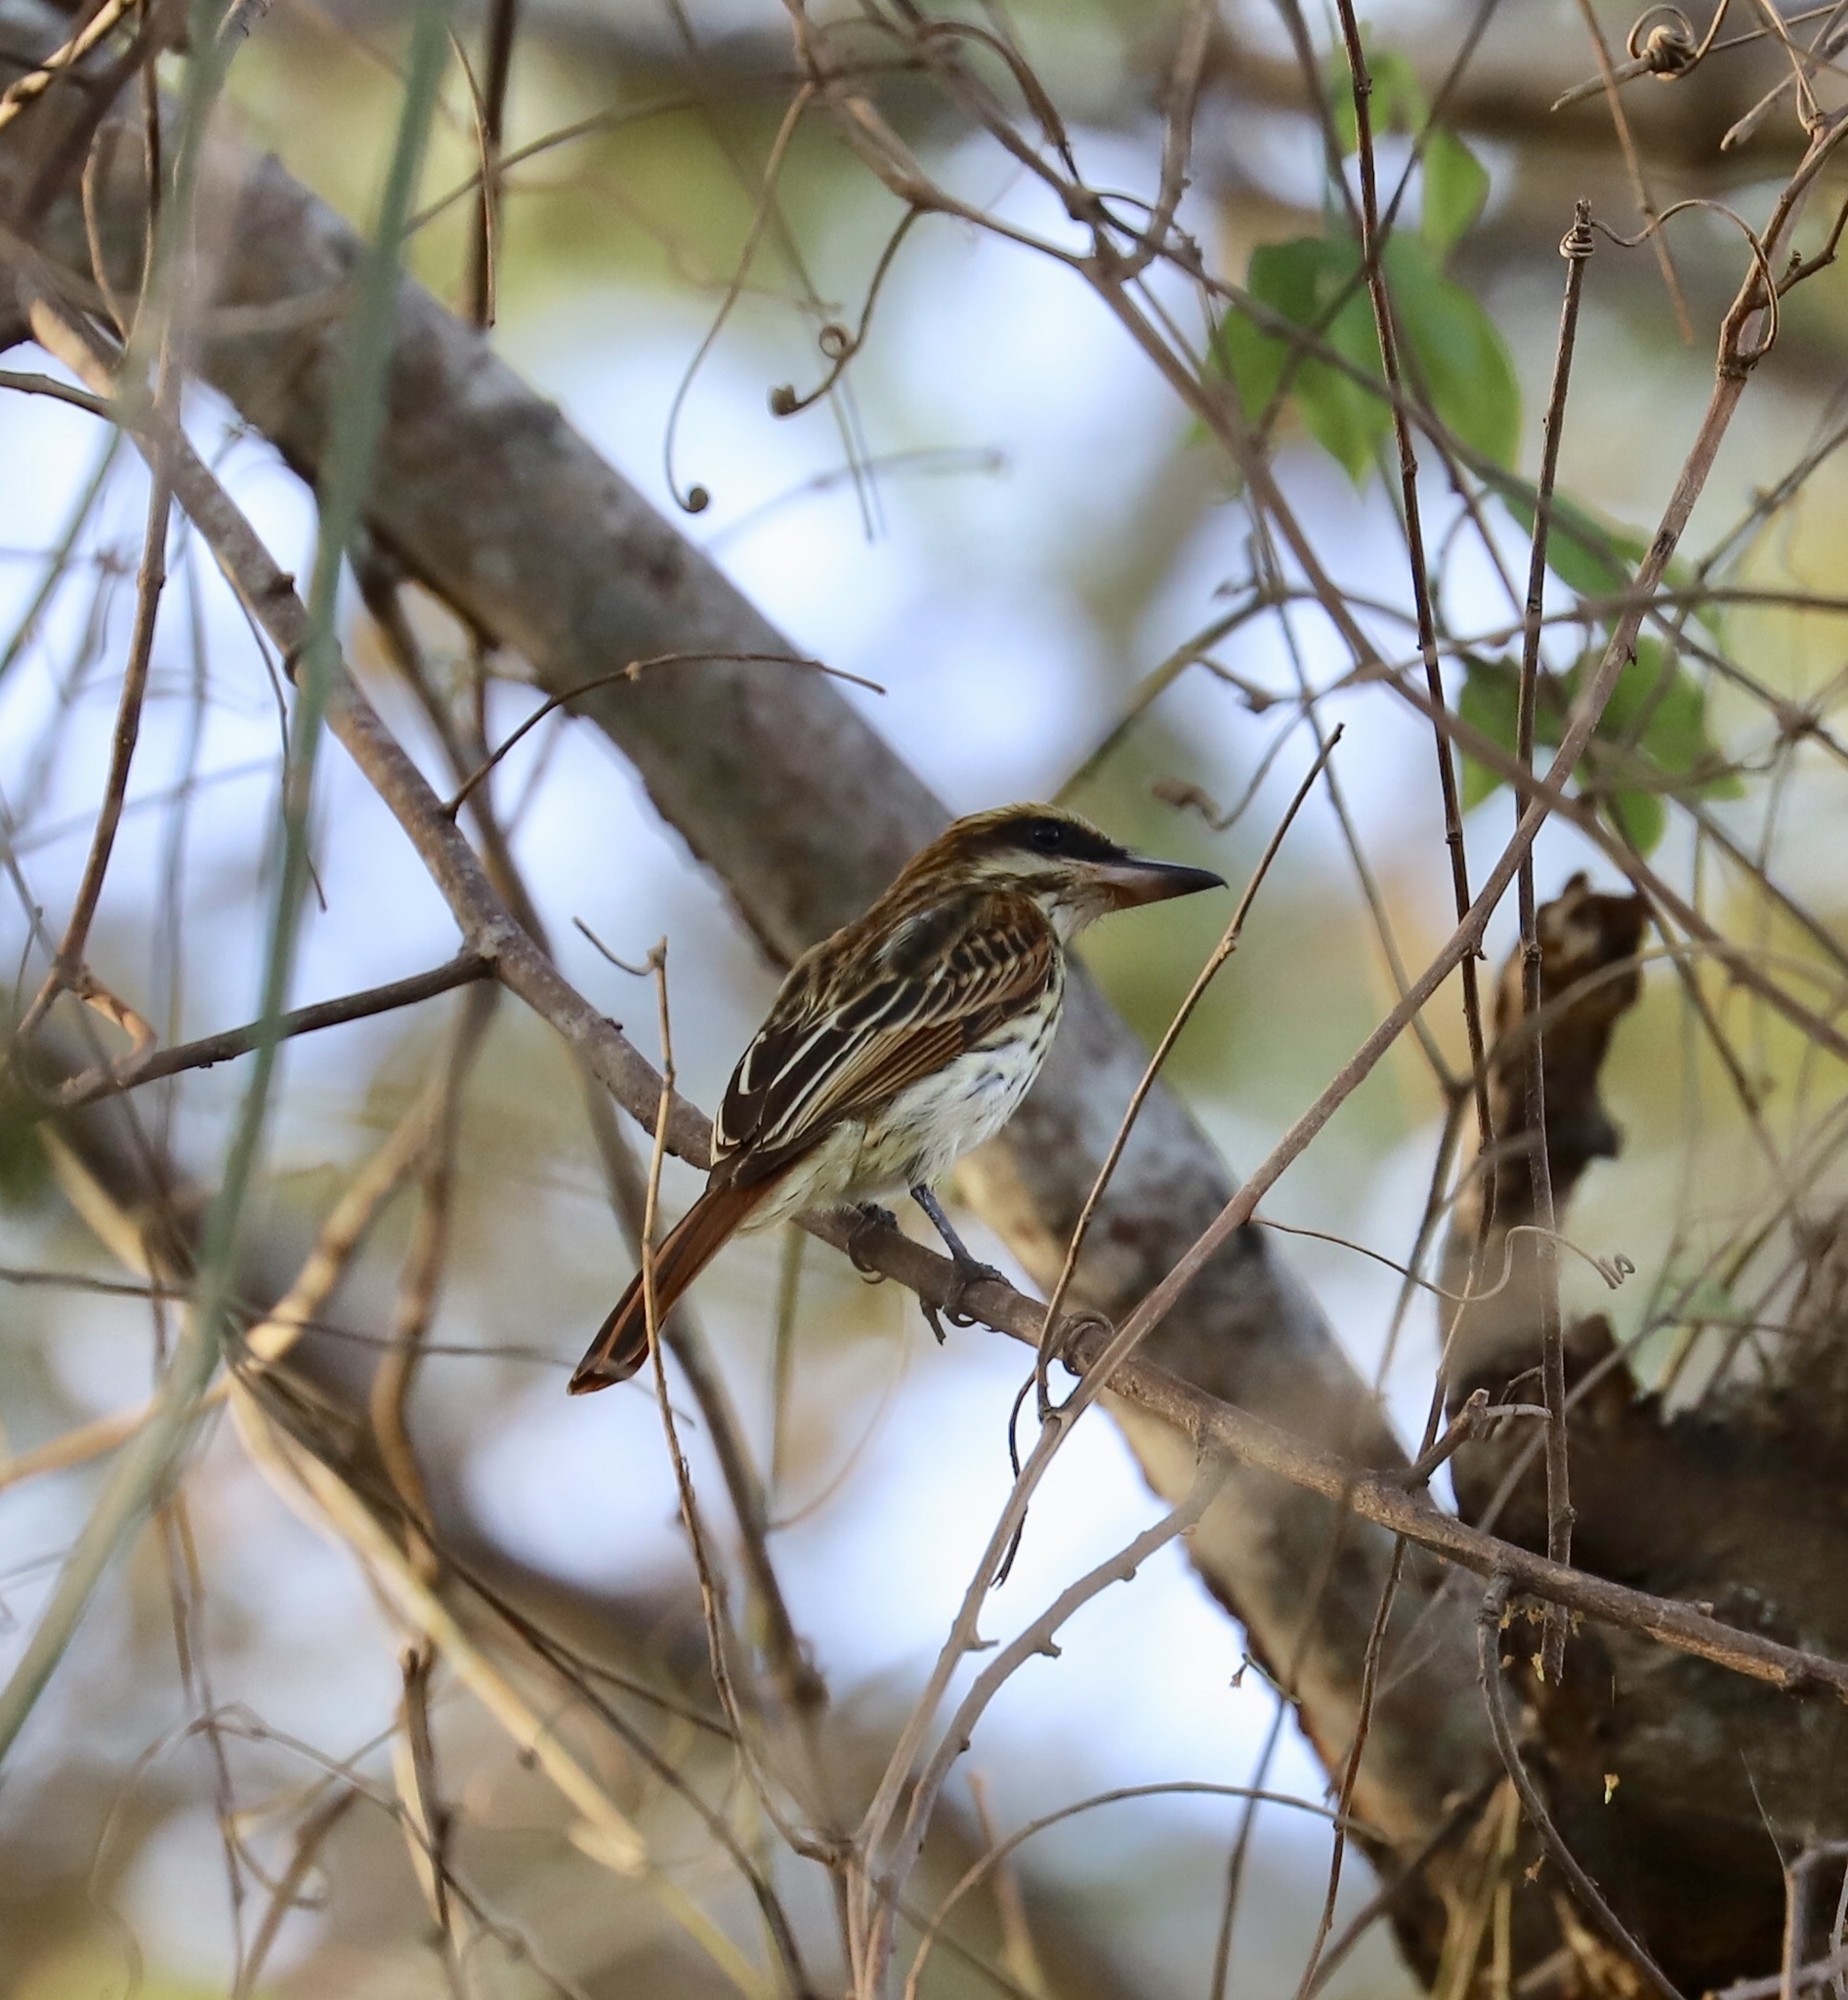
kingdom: Animalia
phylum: Chordata
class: Aves
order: Passeriformes
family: Tyrannidae
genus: Myiodynastes
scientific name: Myiodynastes maculatus
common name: Streaked flycatcher
